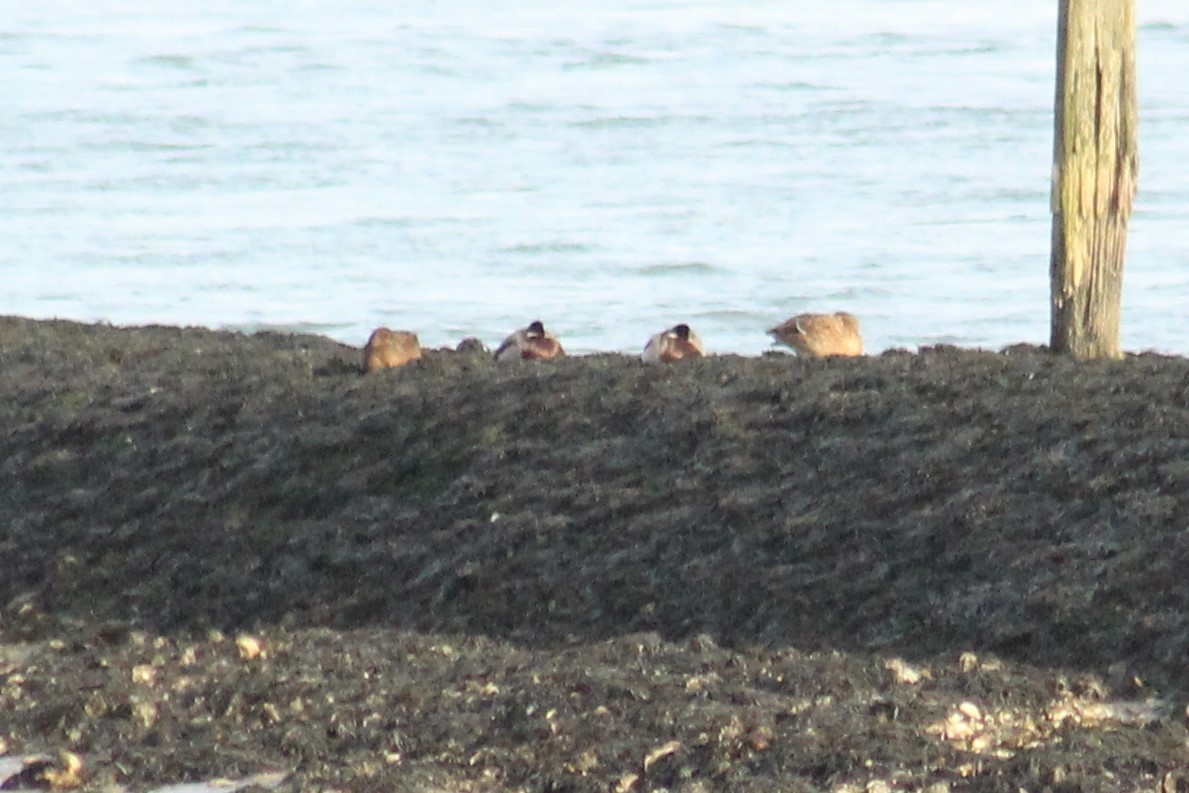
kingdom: Animalia
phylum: Chordata
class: Aves
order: Anseriformes
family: Anatidae
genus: Anas
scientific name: Anas platyrhynchos
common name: Mallard
